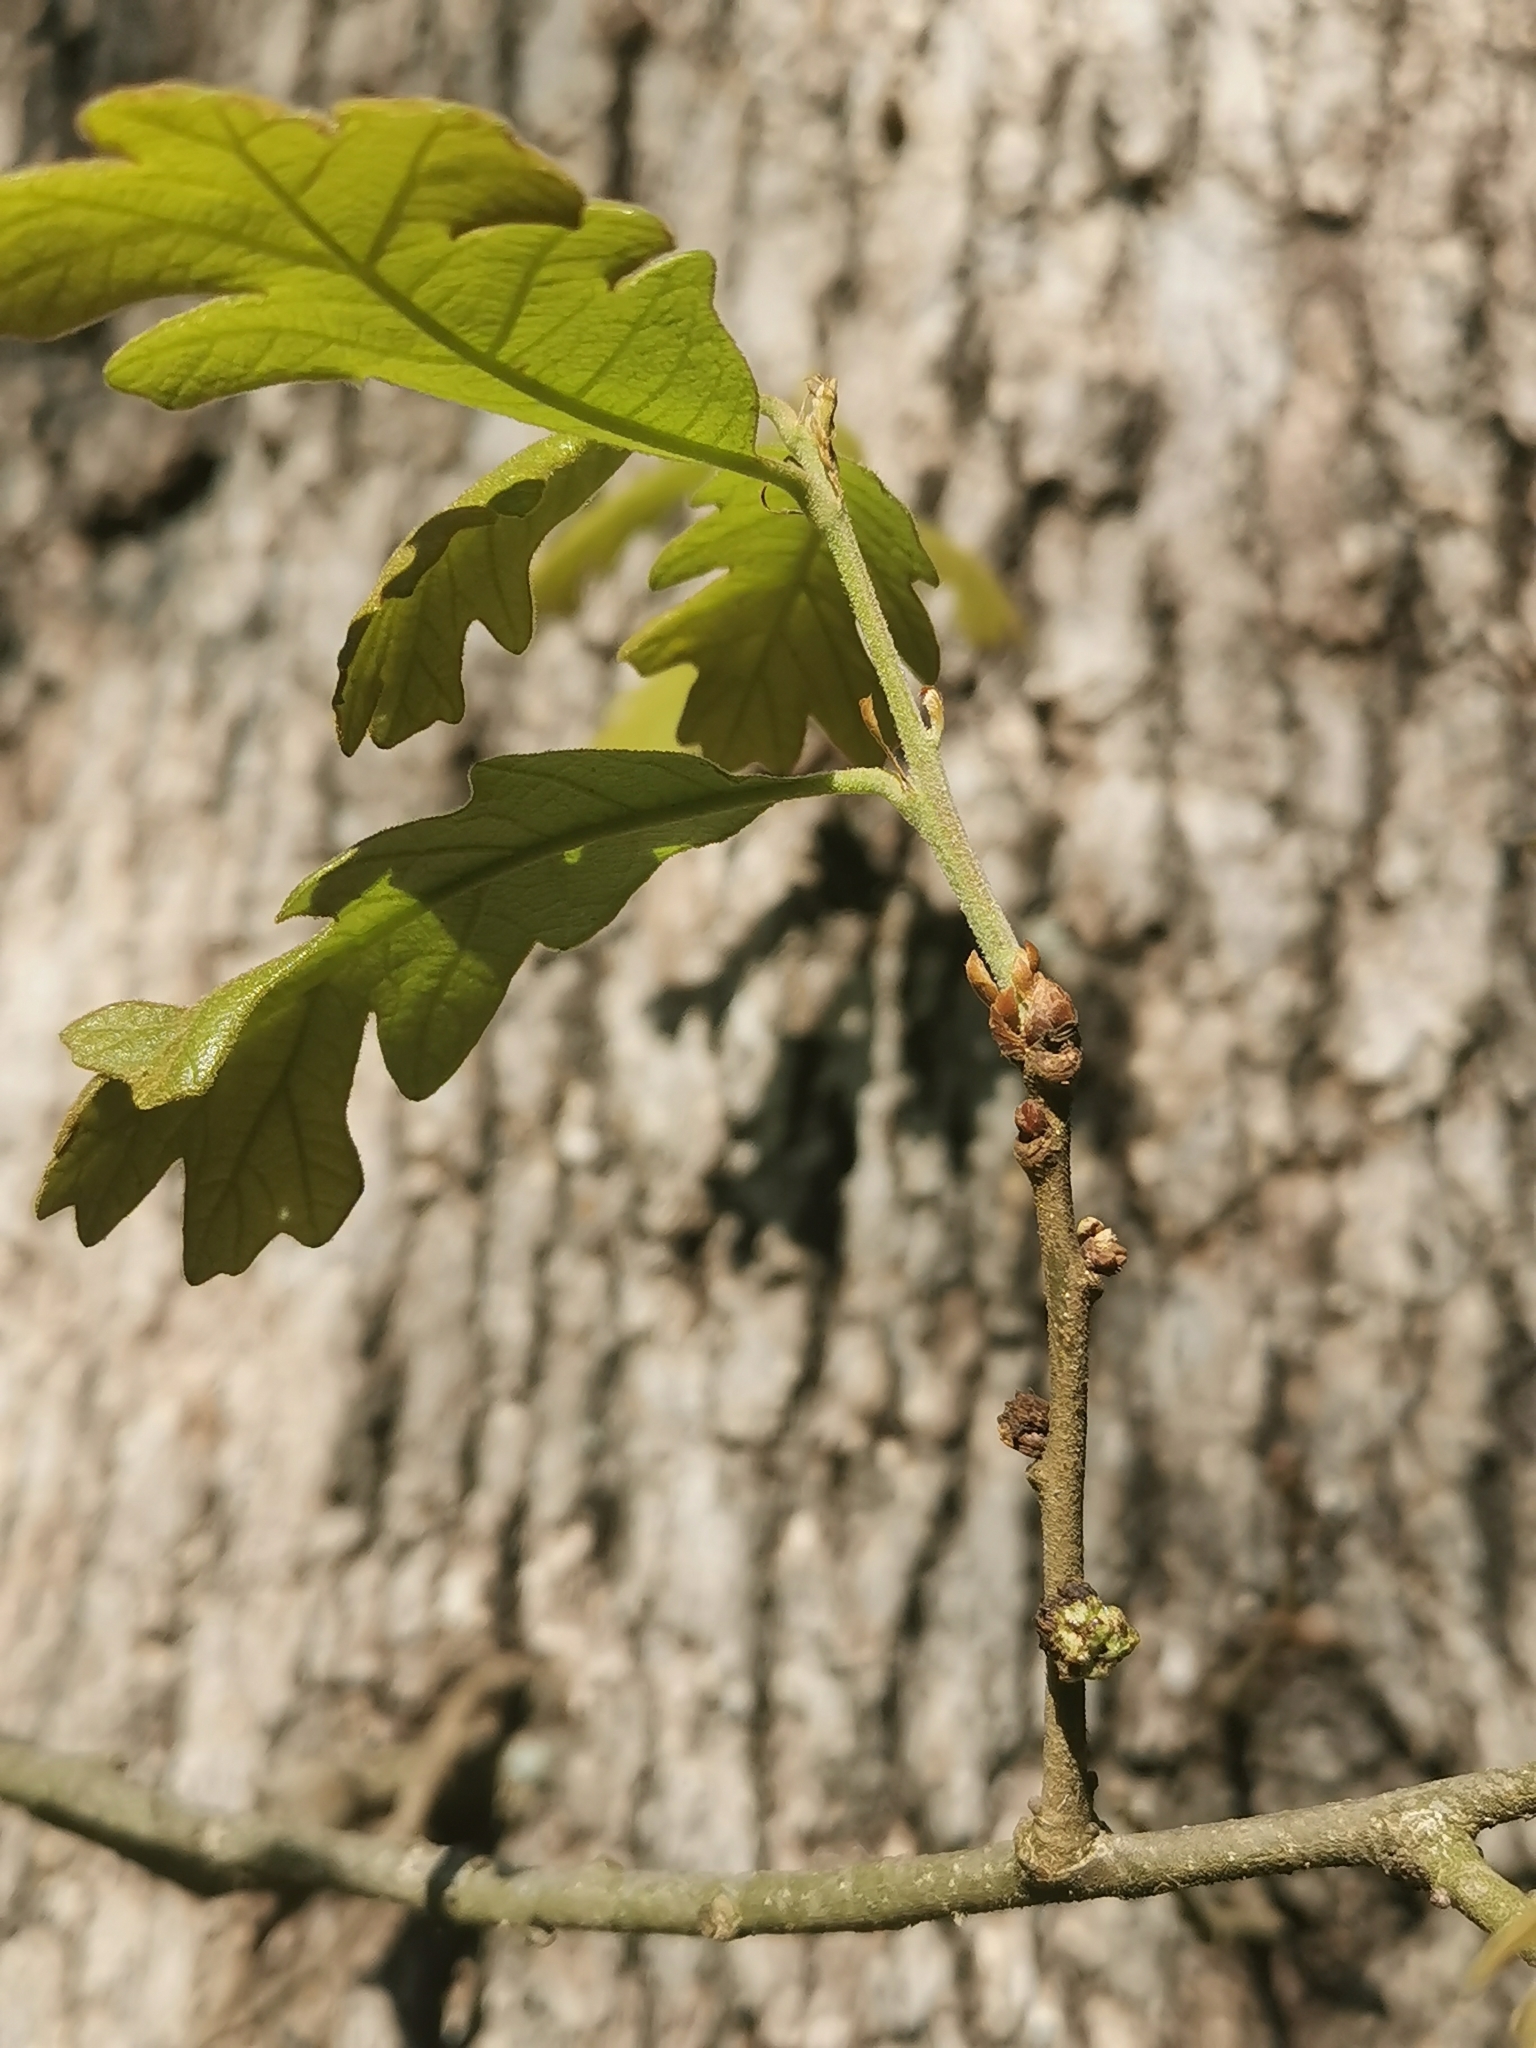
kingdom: Animalia
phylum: Arthropoda
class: Insecta
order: Hymenoptera
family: Cynipidae
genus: Andricus
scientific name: Andricus
